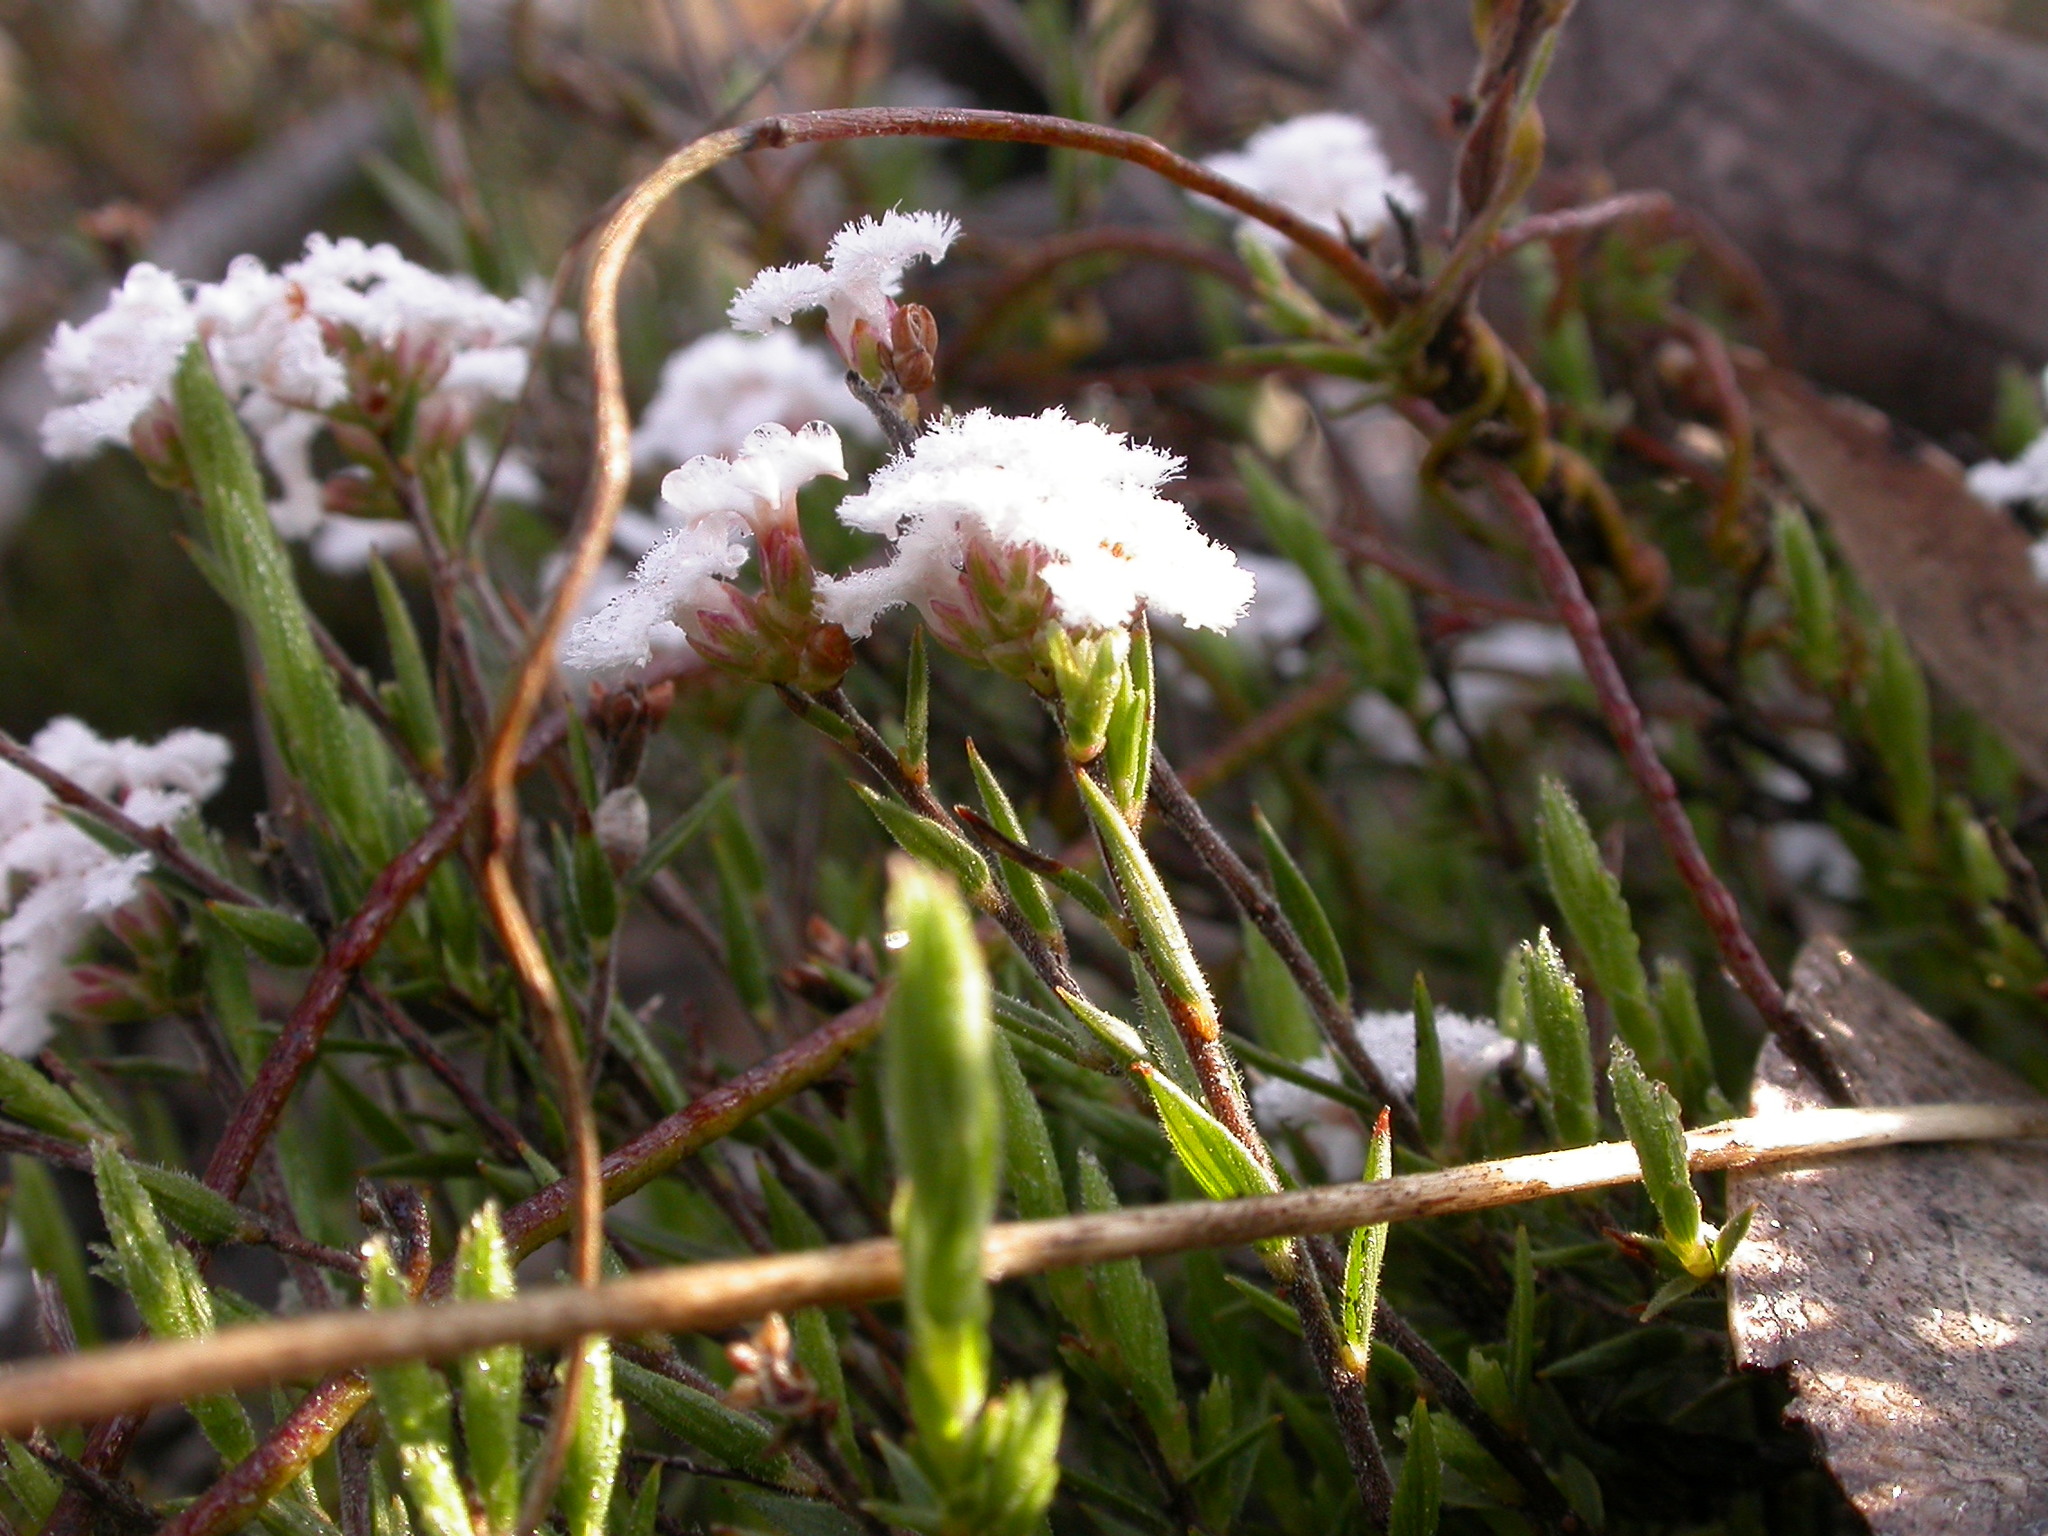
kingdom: Plantae
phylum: Tracheophyta
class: Magnoliopsida
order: Ericales
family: Ericaceae
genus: Leucopogon
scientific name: Leucopogon virgatus
